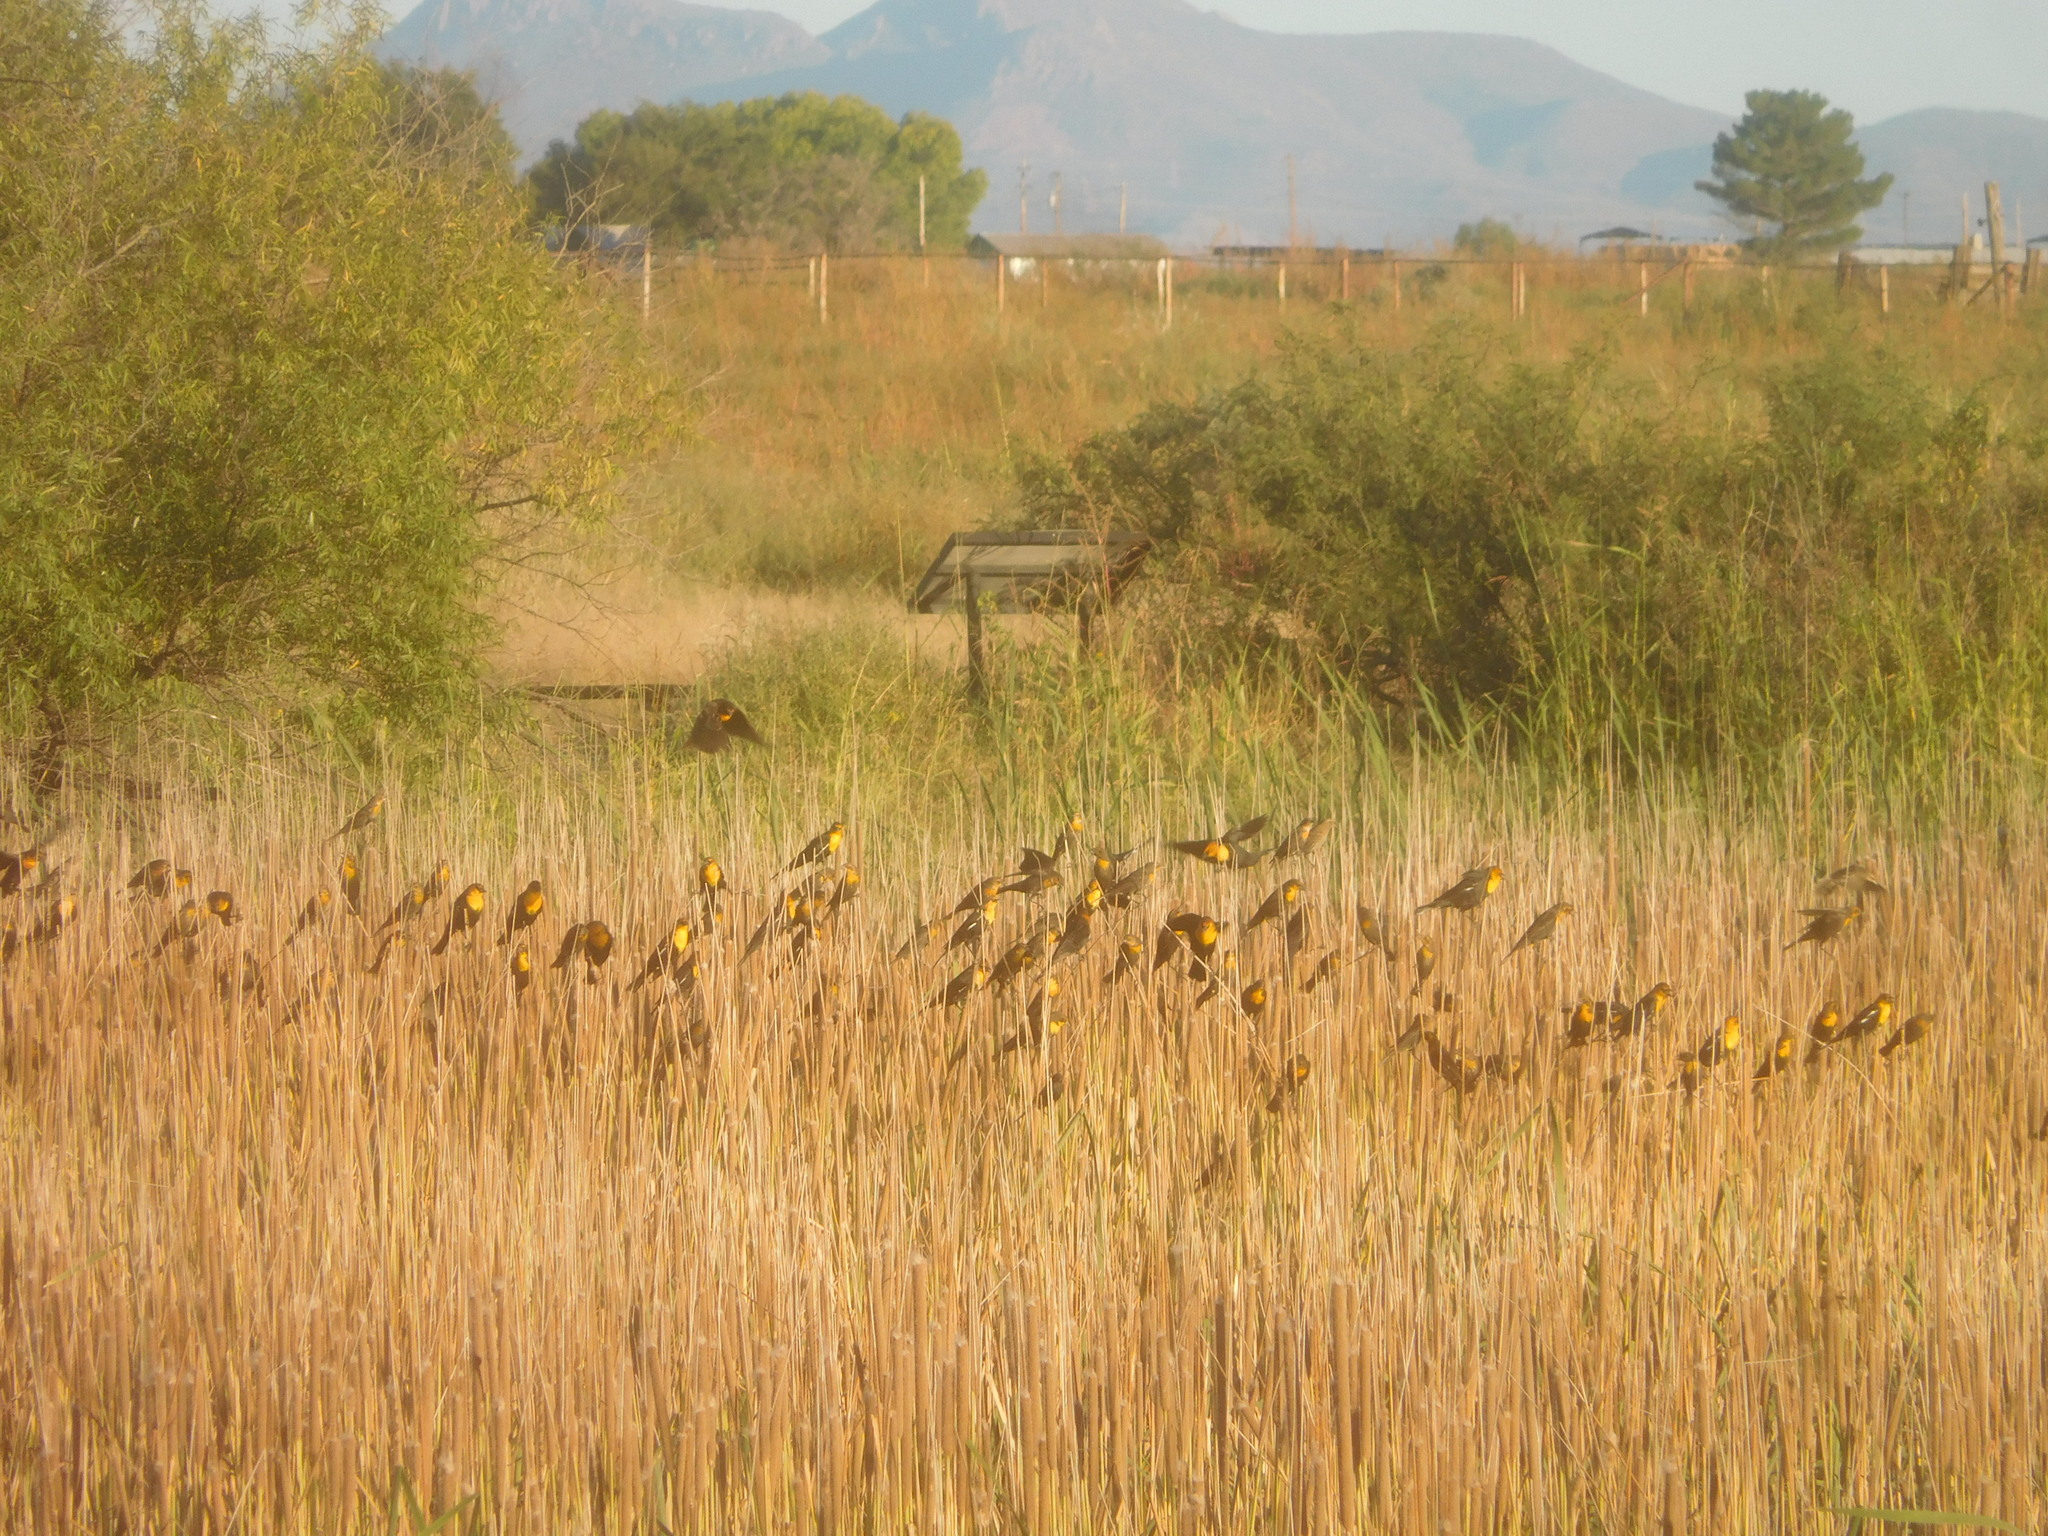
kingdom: Animalia
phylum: Chordata
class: Aves
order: Passeriformes
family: Icteridae
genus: Xanthocephalus
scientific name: Xanthocephalus xanthocephalus
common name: Yellow-headed blackbird
